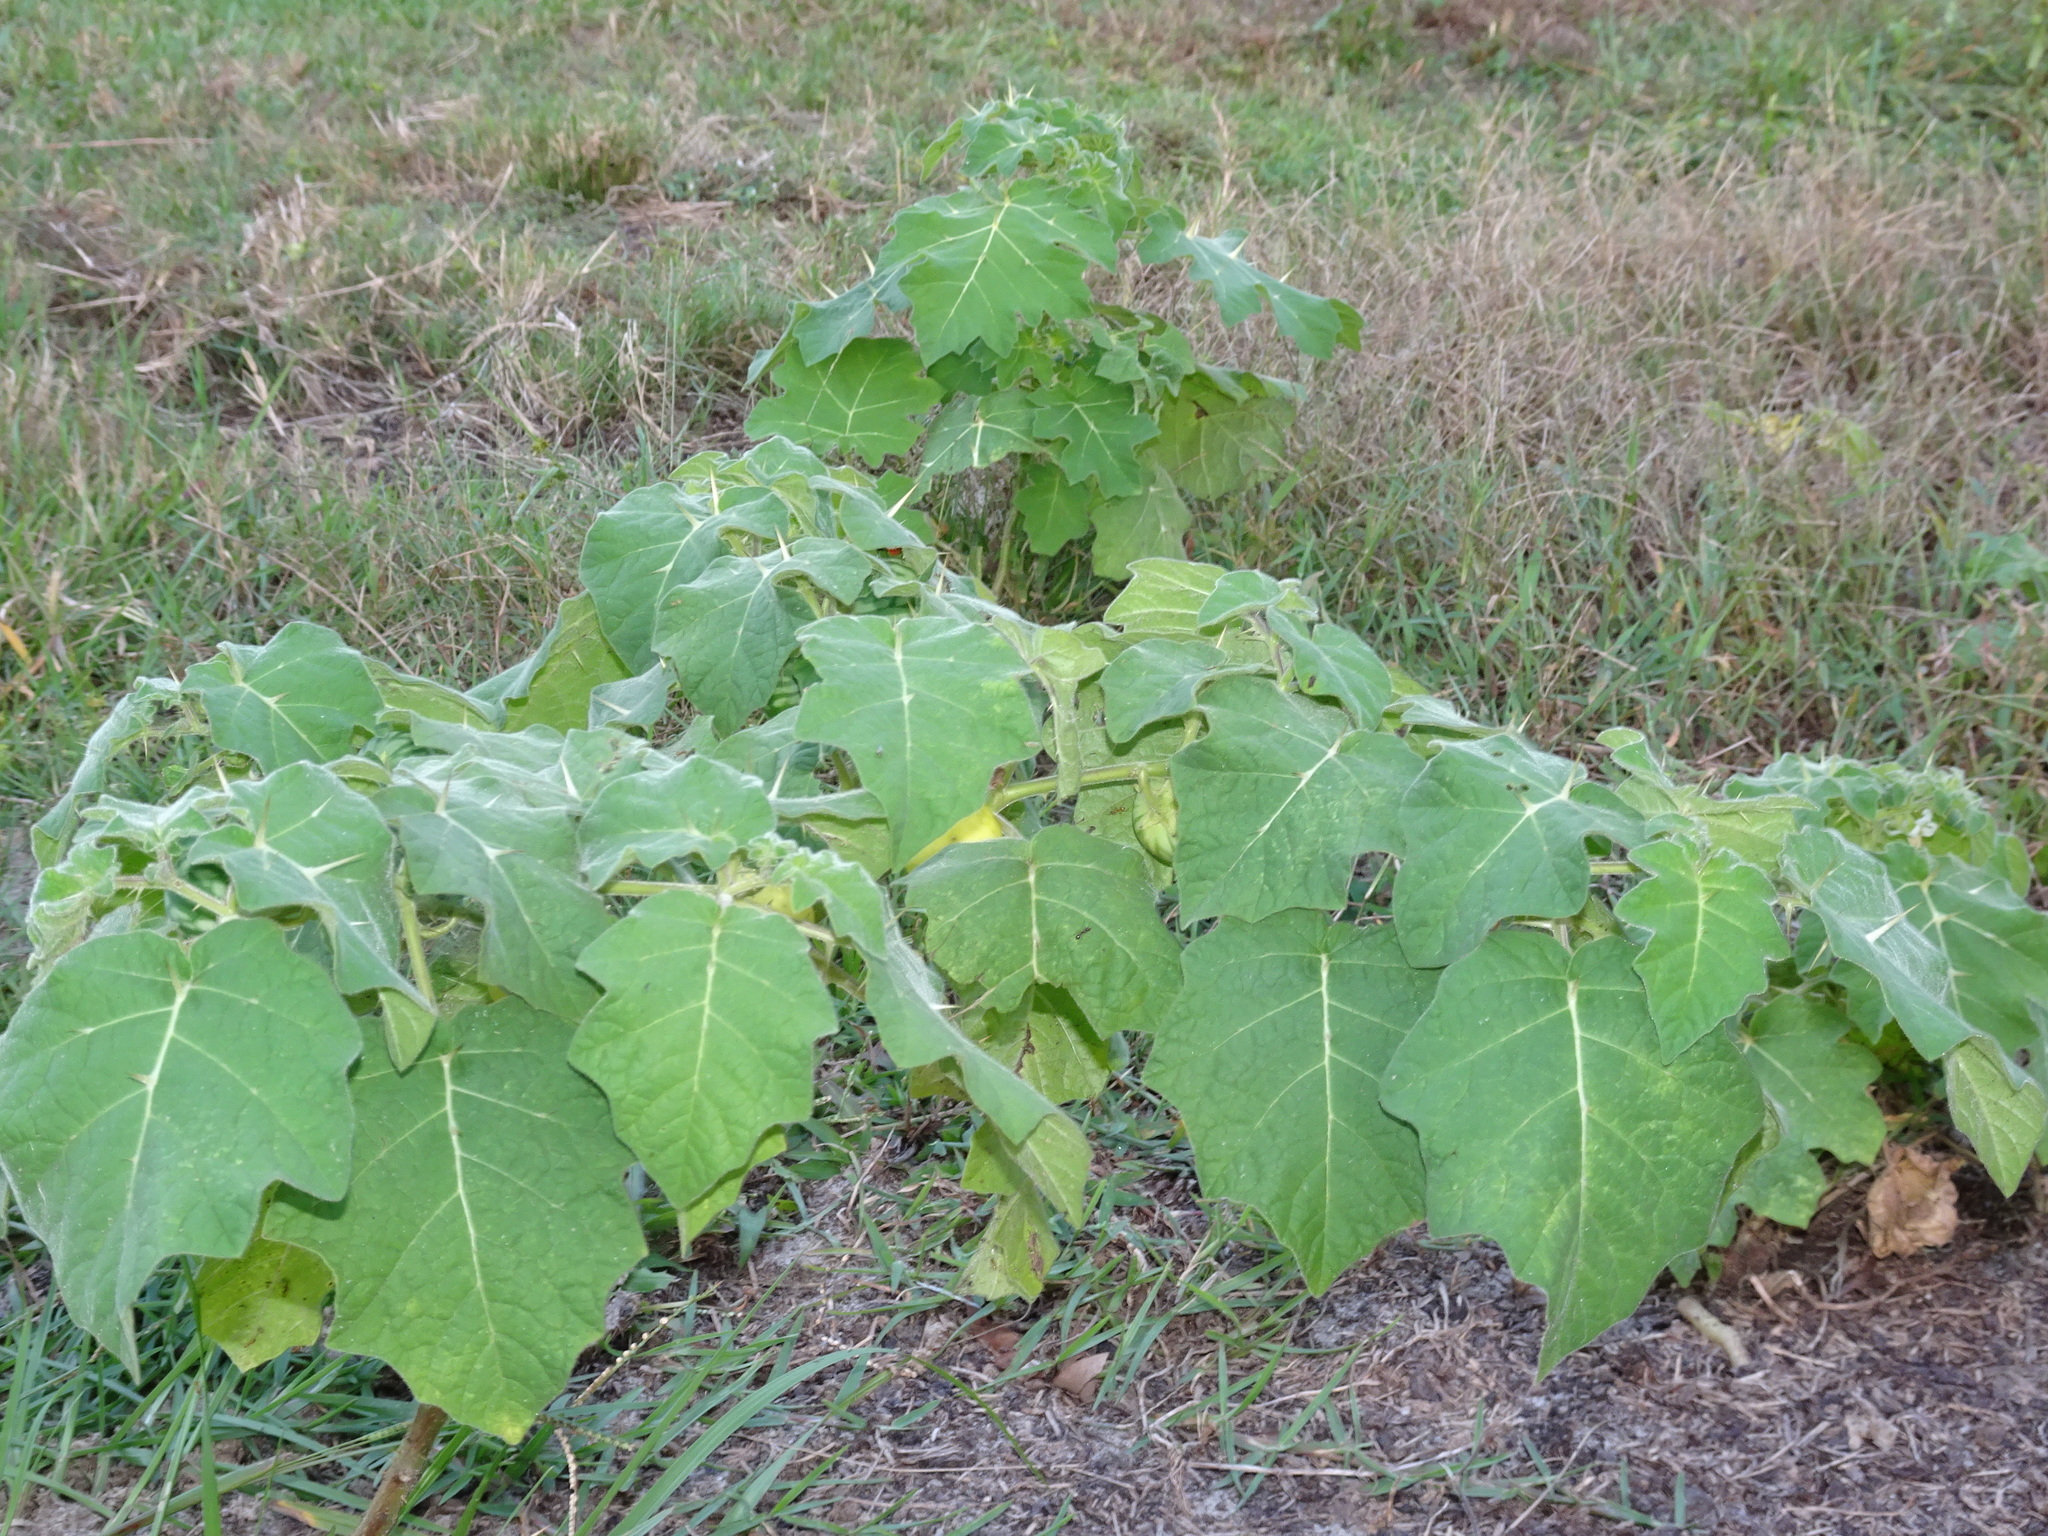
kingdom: Plantae
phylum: Tracheophyta
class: Magnoliopsida
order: Solanales
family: Solanaceae
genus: Solanum
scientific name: Solanum viarum
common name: Tropical soda apple
